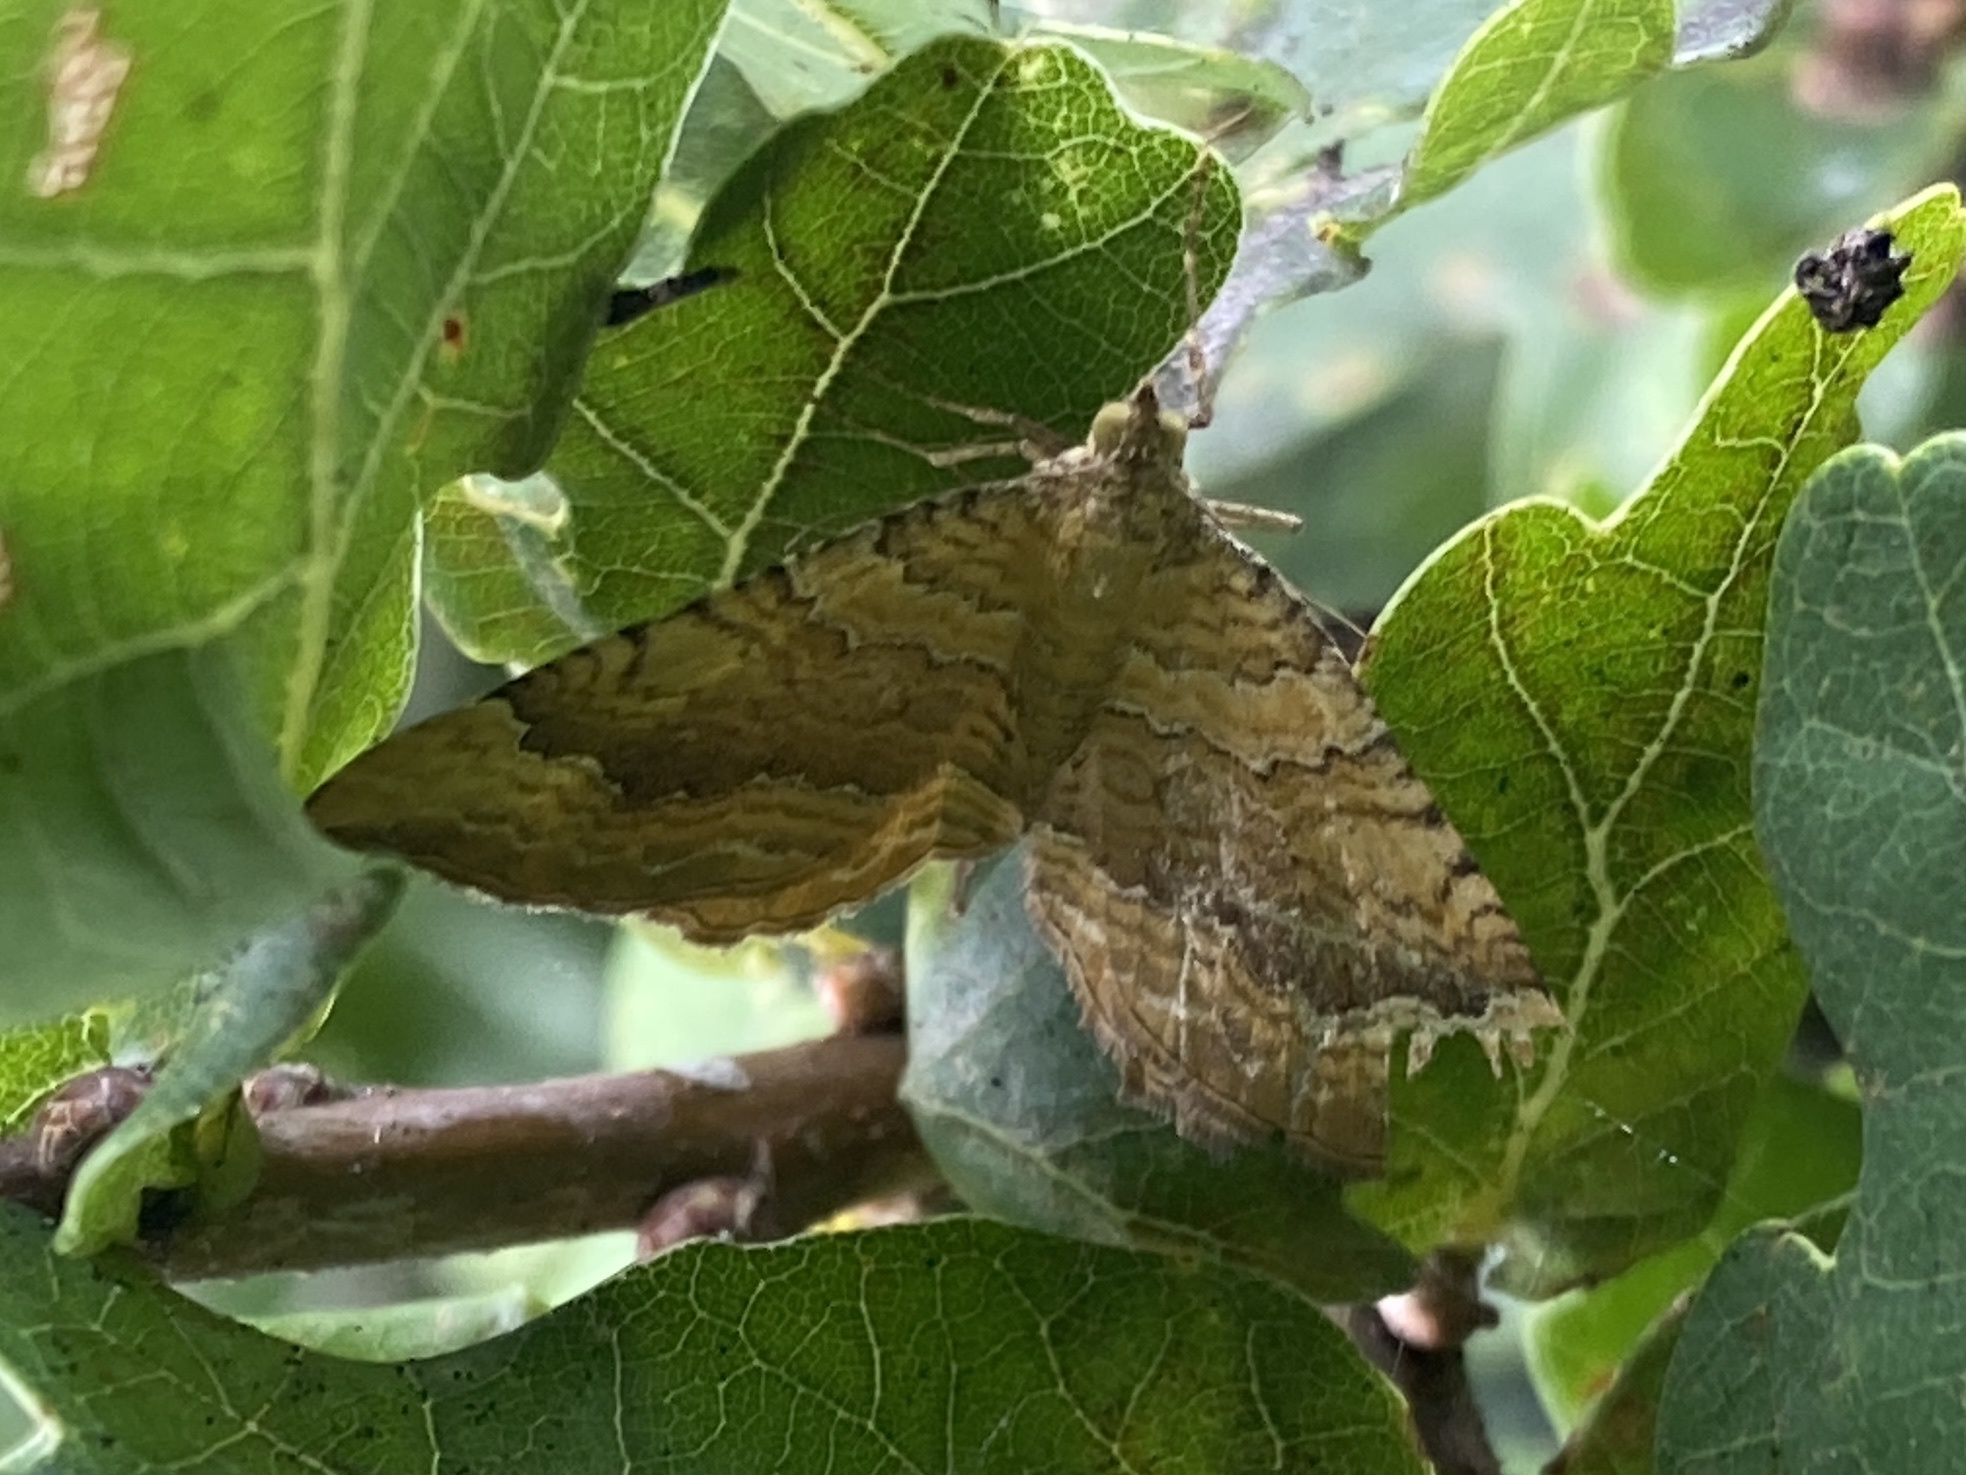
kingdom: Animalia
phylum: Arthropoda
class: Insecta
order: Lepidoptera
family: Geometridae
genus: Camptogramma
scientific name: Camptogramma bilineata
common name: Yellow shell
